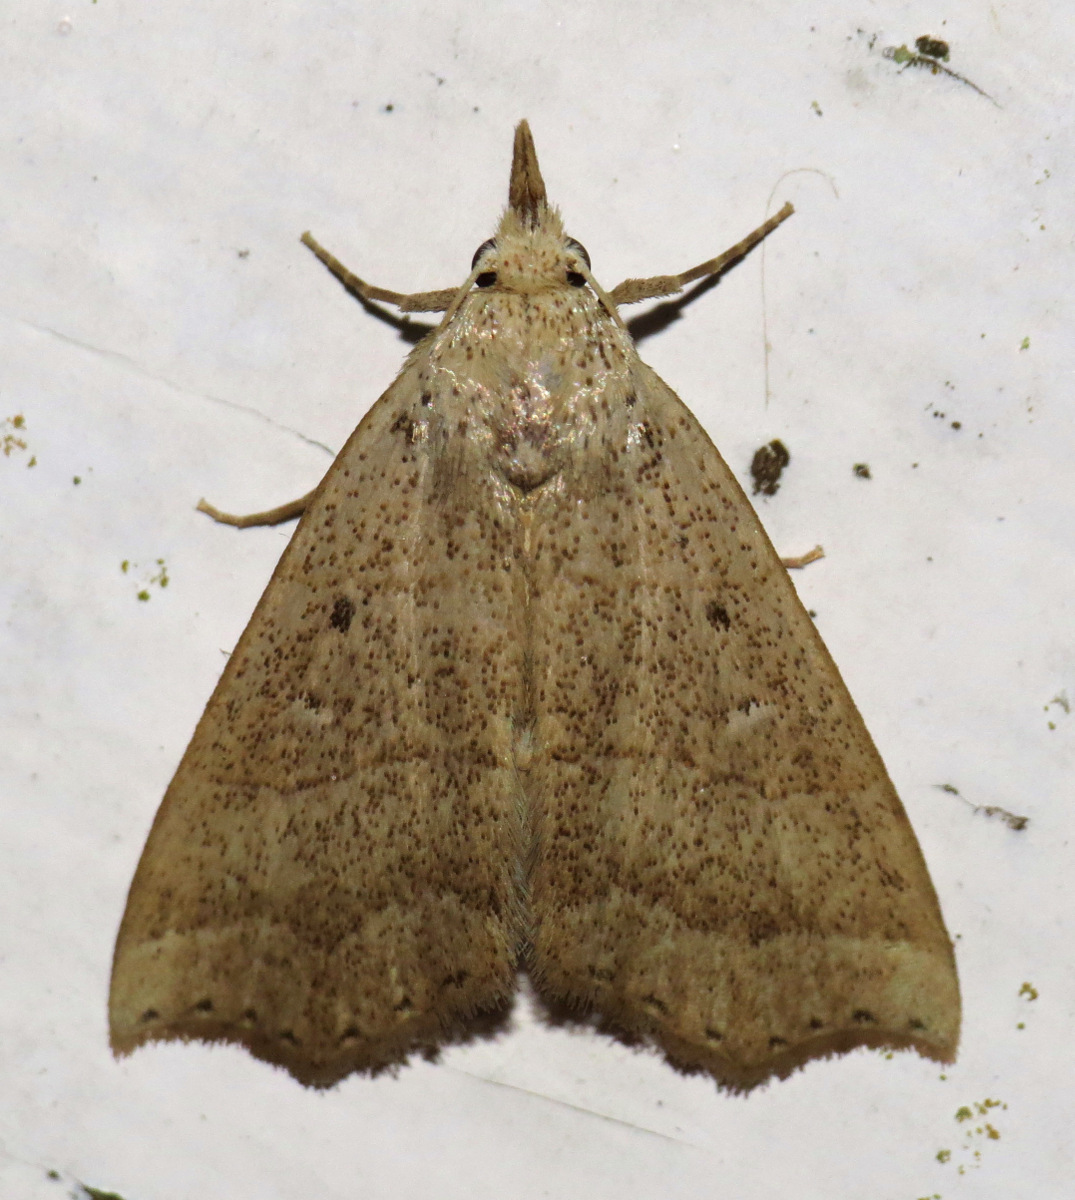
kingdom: Animalia
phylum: Arthropoda
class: Insecta
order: Lepidoptera
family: Erebidae
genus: Hyamia
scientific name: Hyamia Ensipia trilineata
